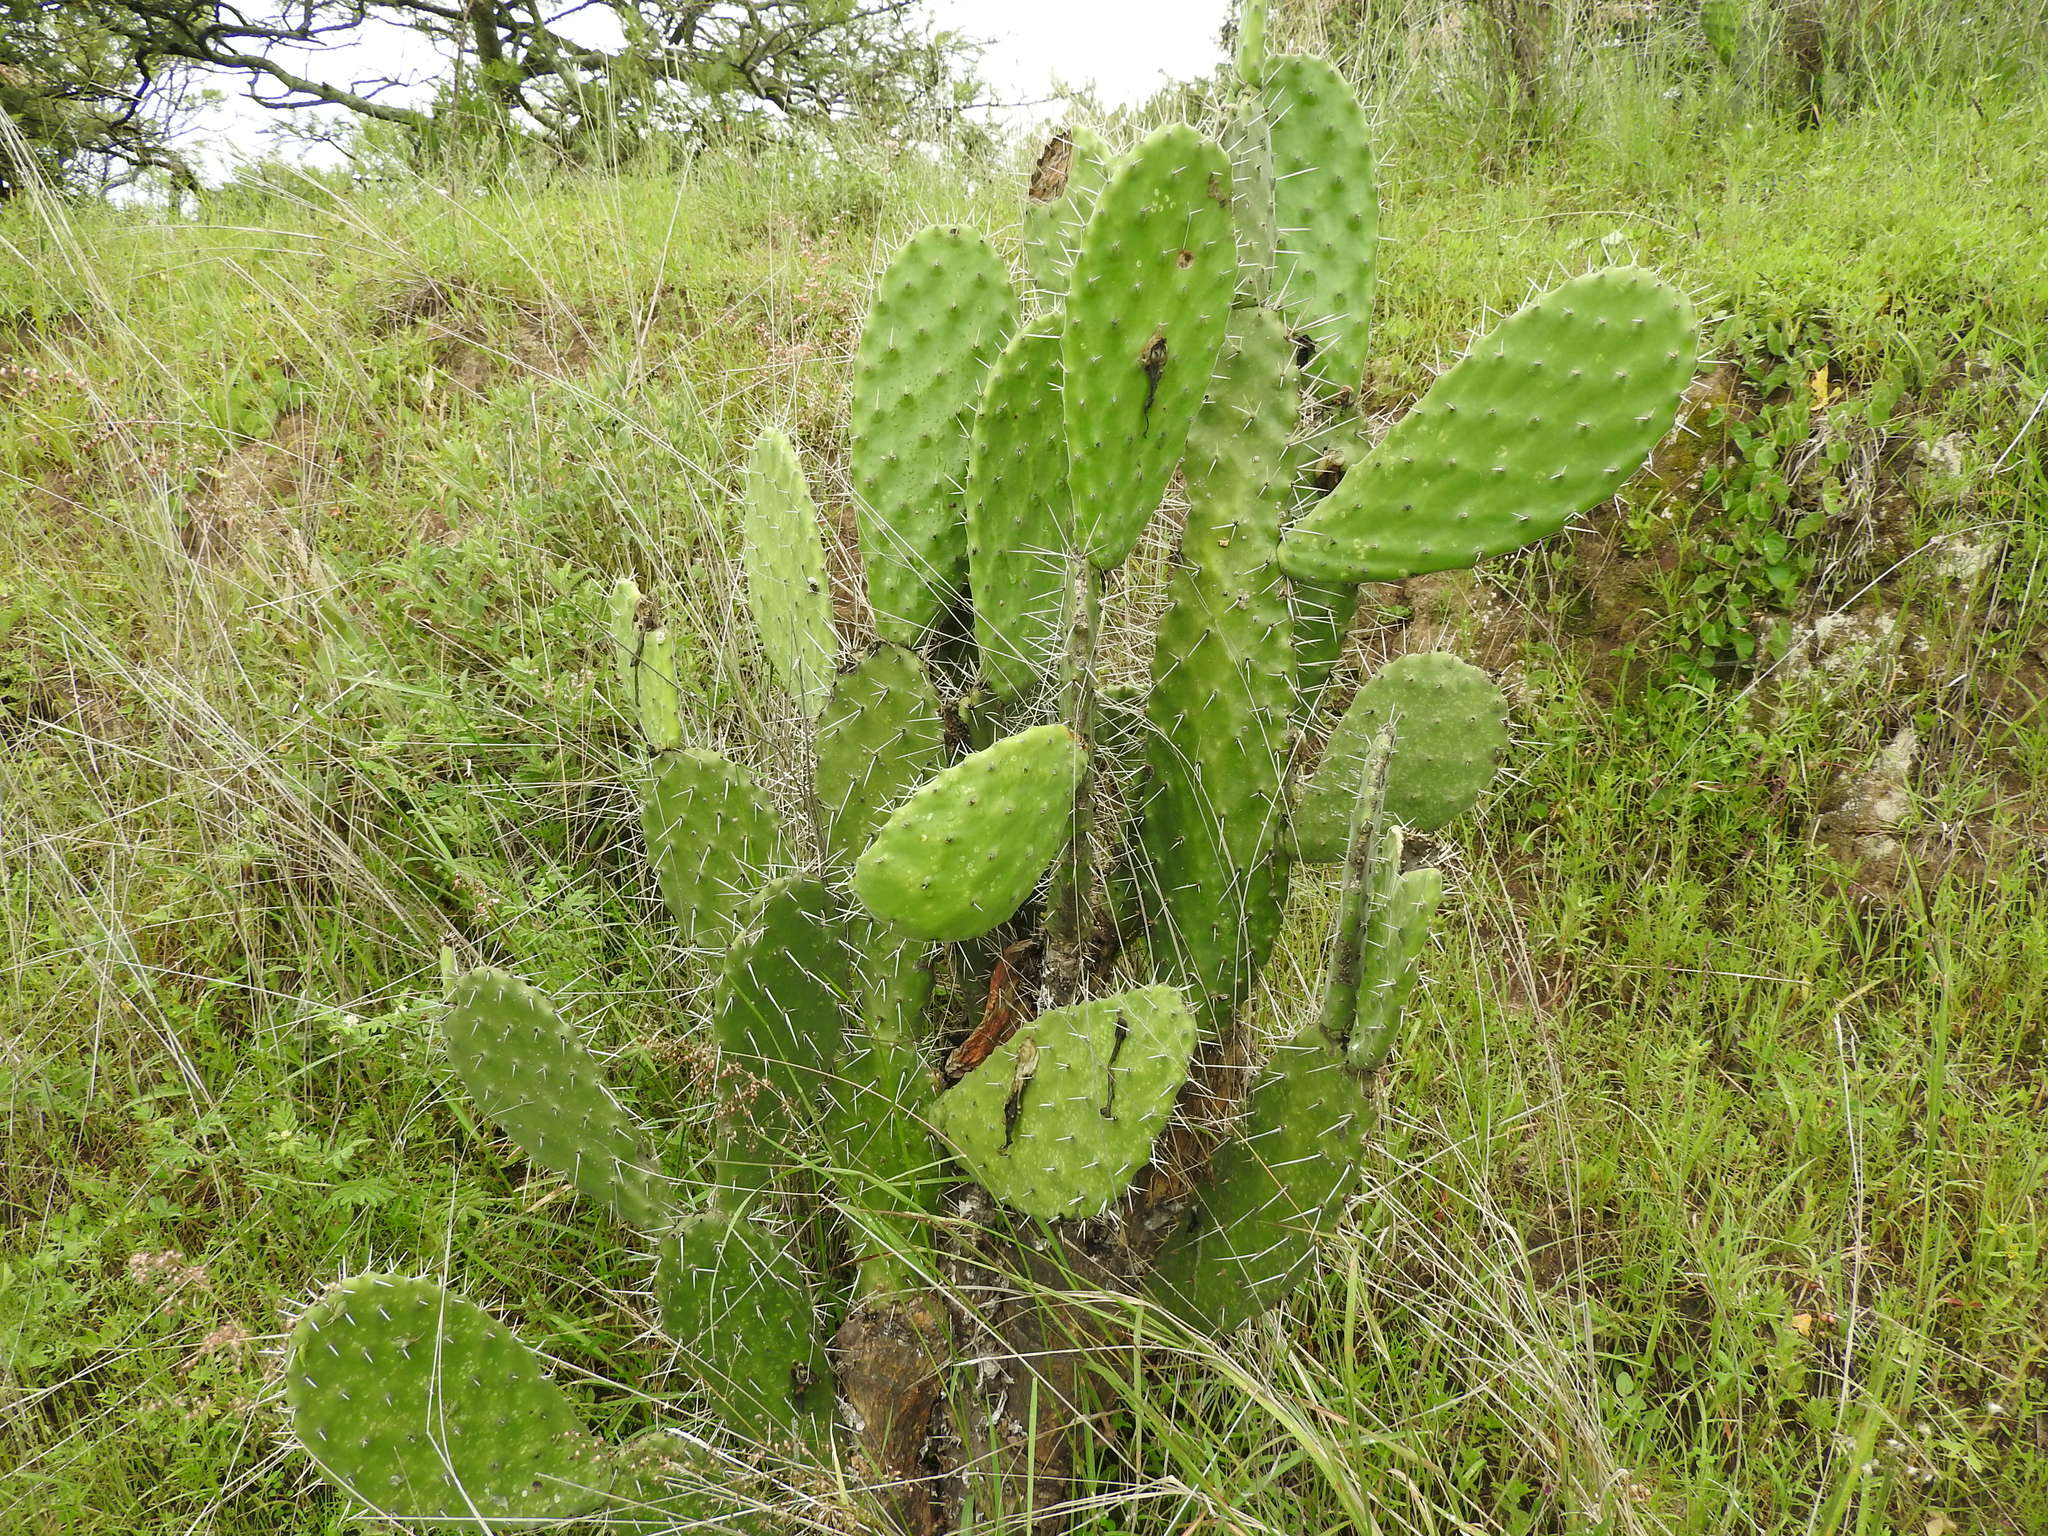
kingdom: Plantae
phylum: Tracheophyta
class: Magnoliopsida
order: Caryophyllales
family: Cactaceae
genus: Opuntia
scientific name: Opuntia tomentosa
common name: Woollyjoint pricklypear
